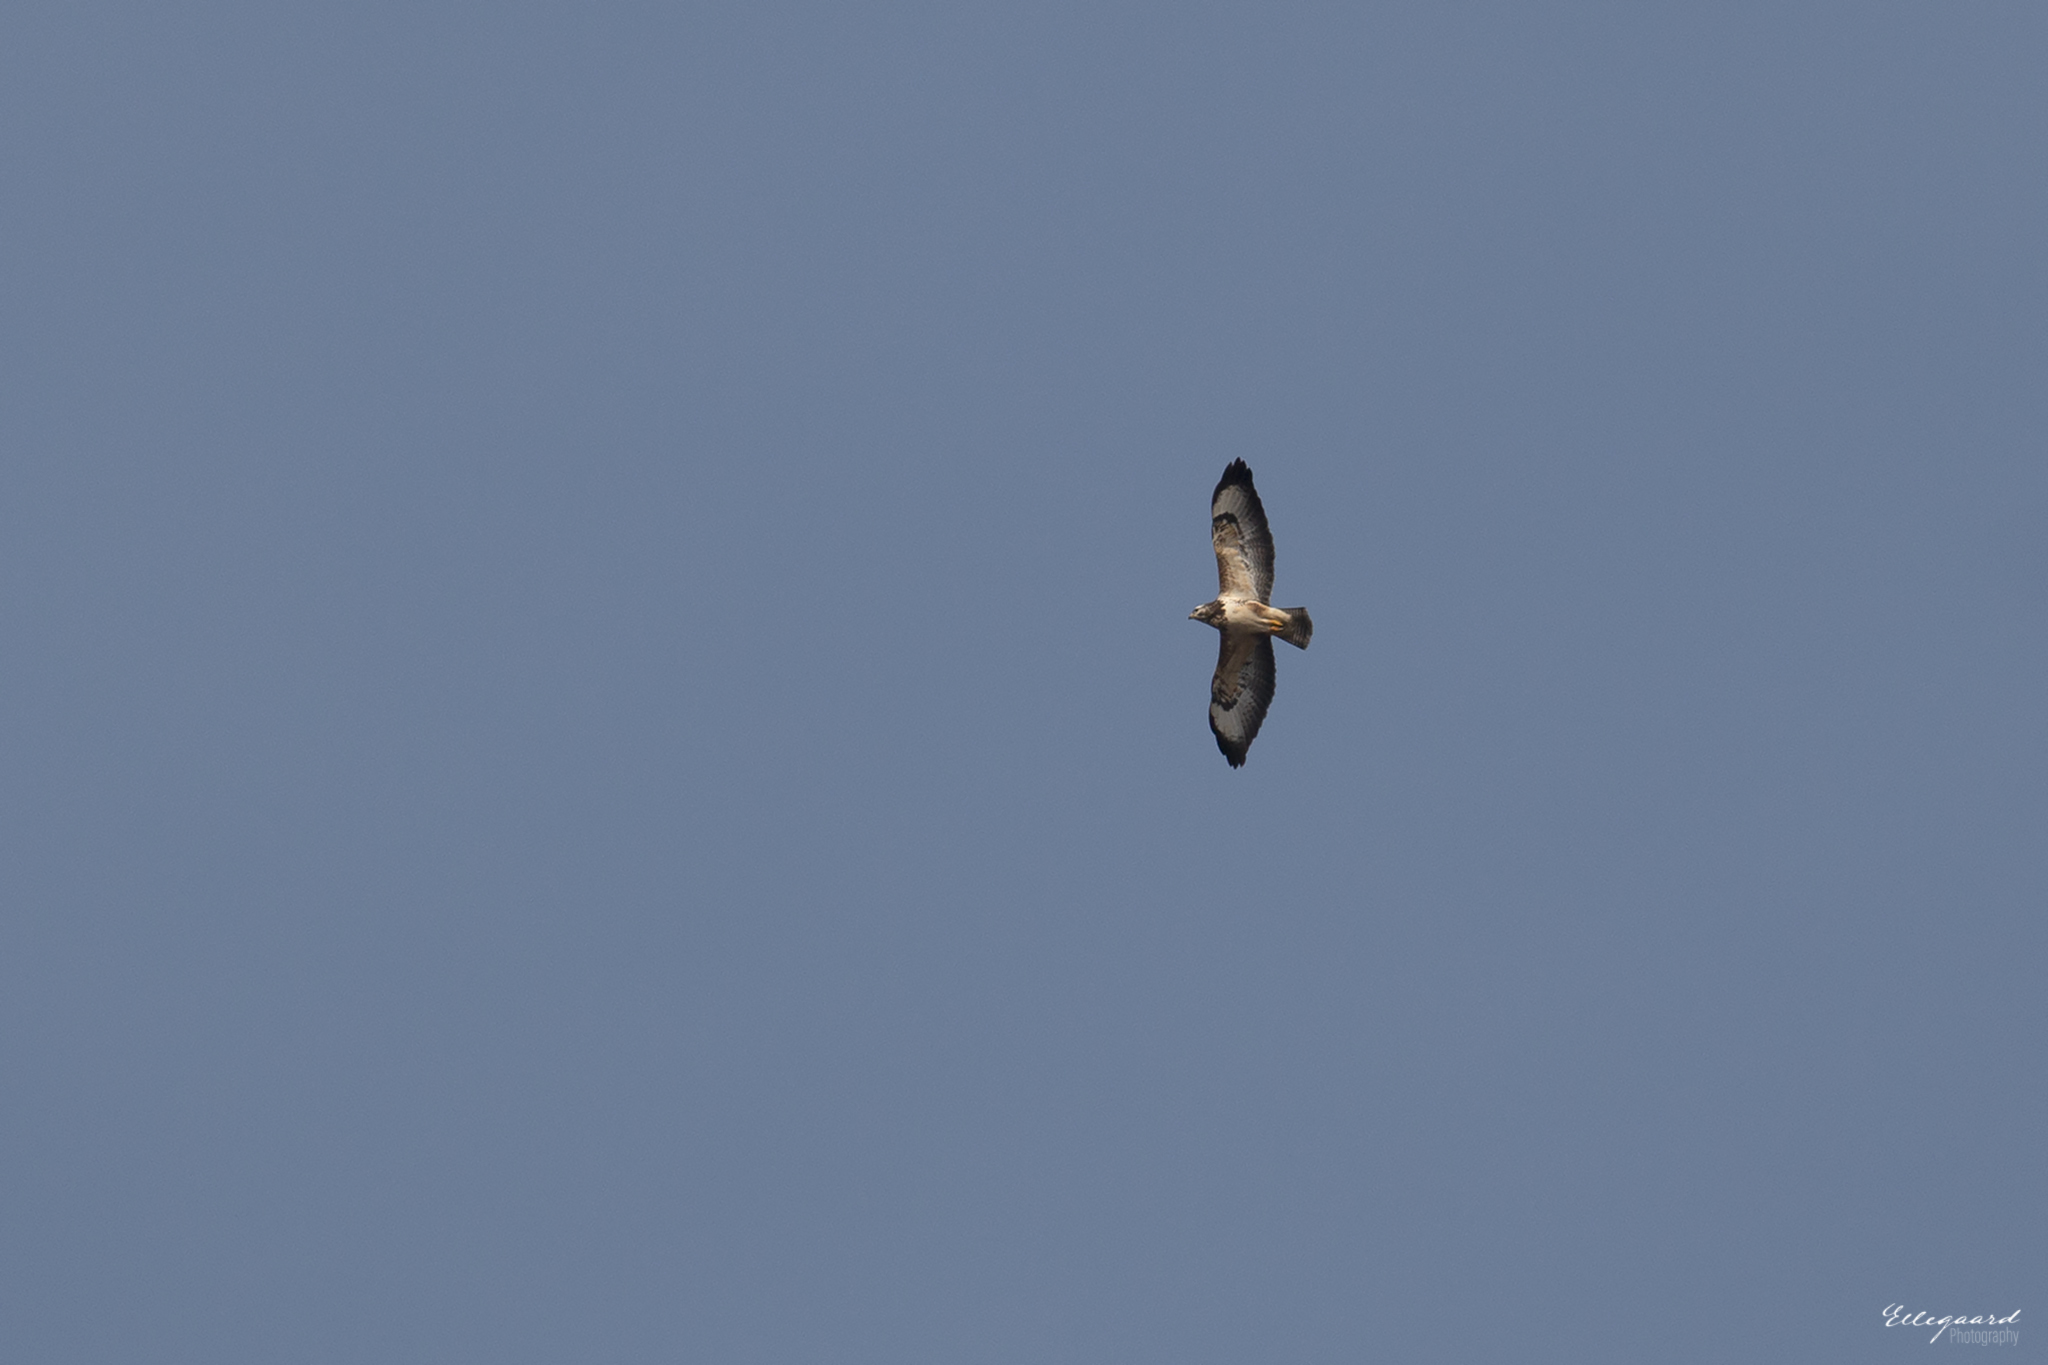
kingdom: Animalia
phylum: Chordata
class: Aves
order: Accipitriformes
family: Accipitridae
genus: Buteo
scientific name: Buteo buteo
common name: Common buzzard
